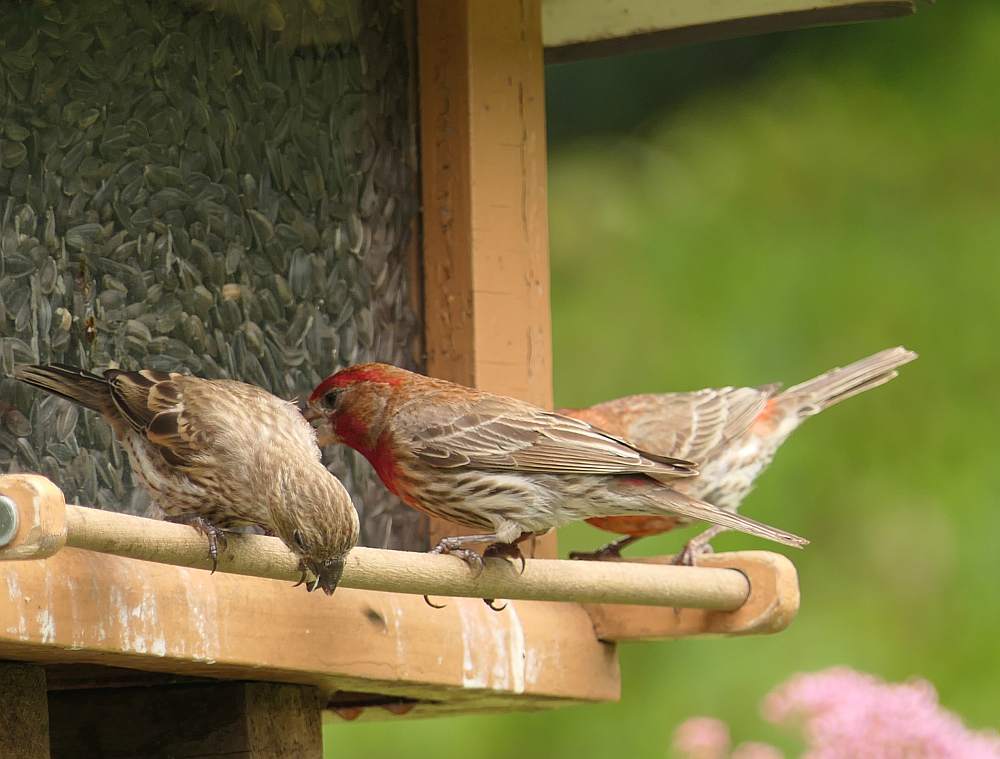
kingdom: Animalia
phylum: Chordata
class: Aves
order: Passeriformes
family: Fringillidae
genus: Haemorhous
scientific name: Haemorhous mexicanus
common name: House finch
